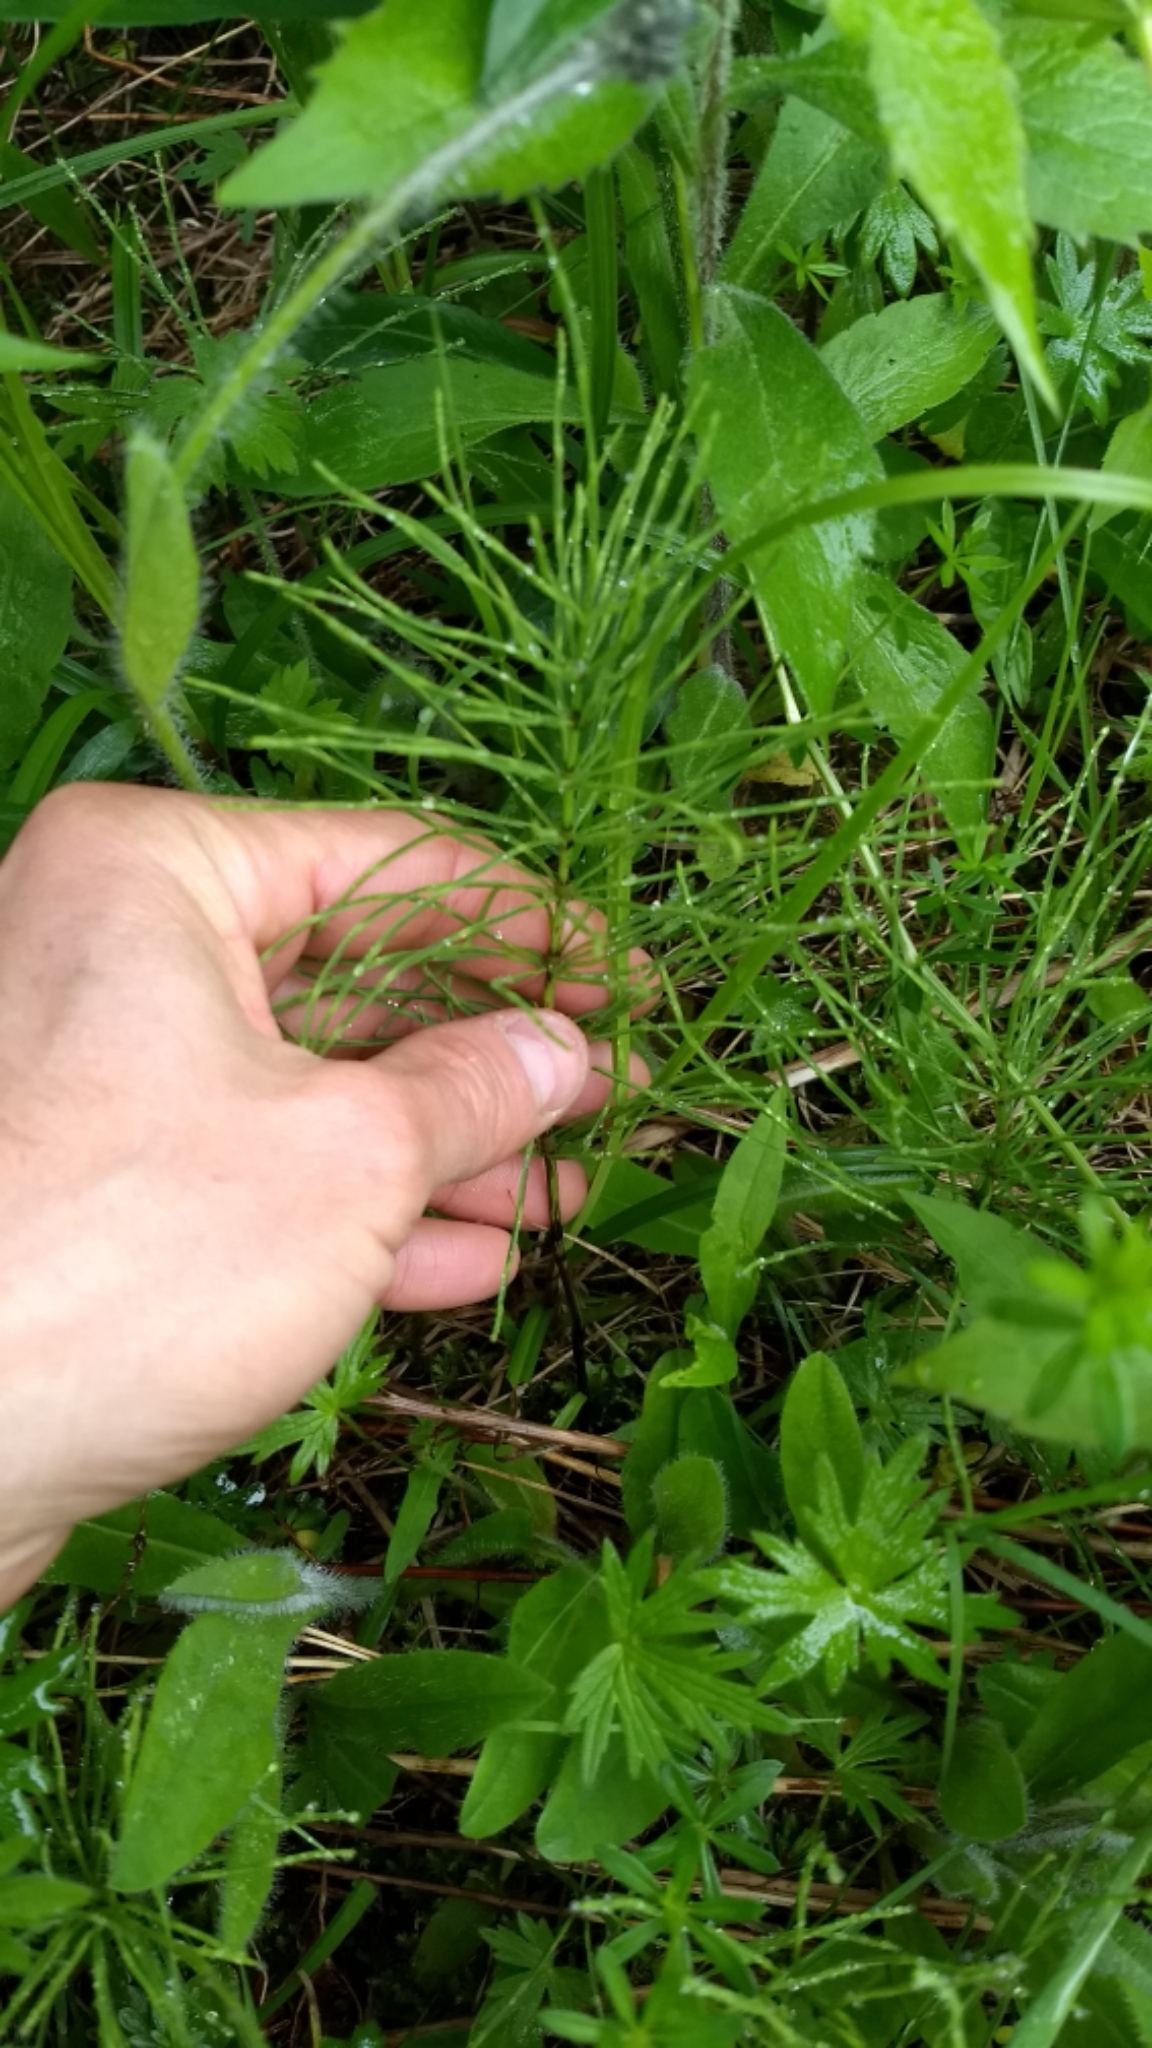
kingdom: Plantae
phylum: Tracheophyta
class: Polypodiopsida
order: Equisetales
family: Equisetaceae
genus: Equisetum
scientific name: Equisetum arvense
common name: Field horsetail
